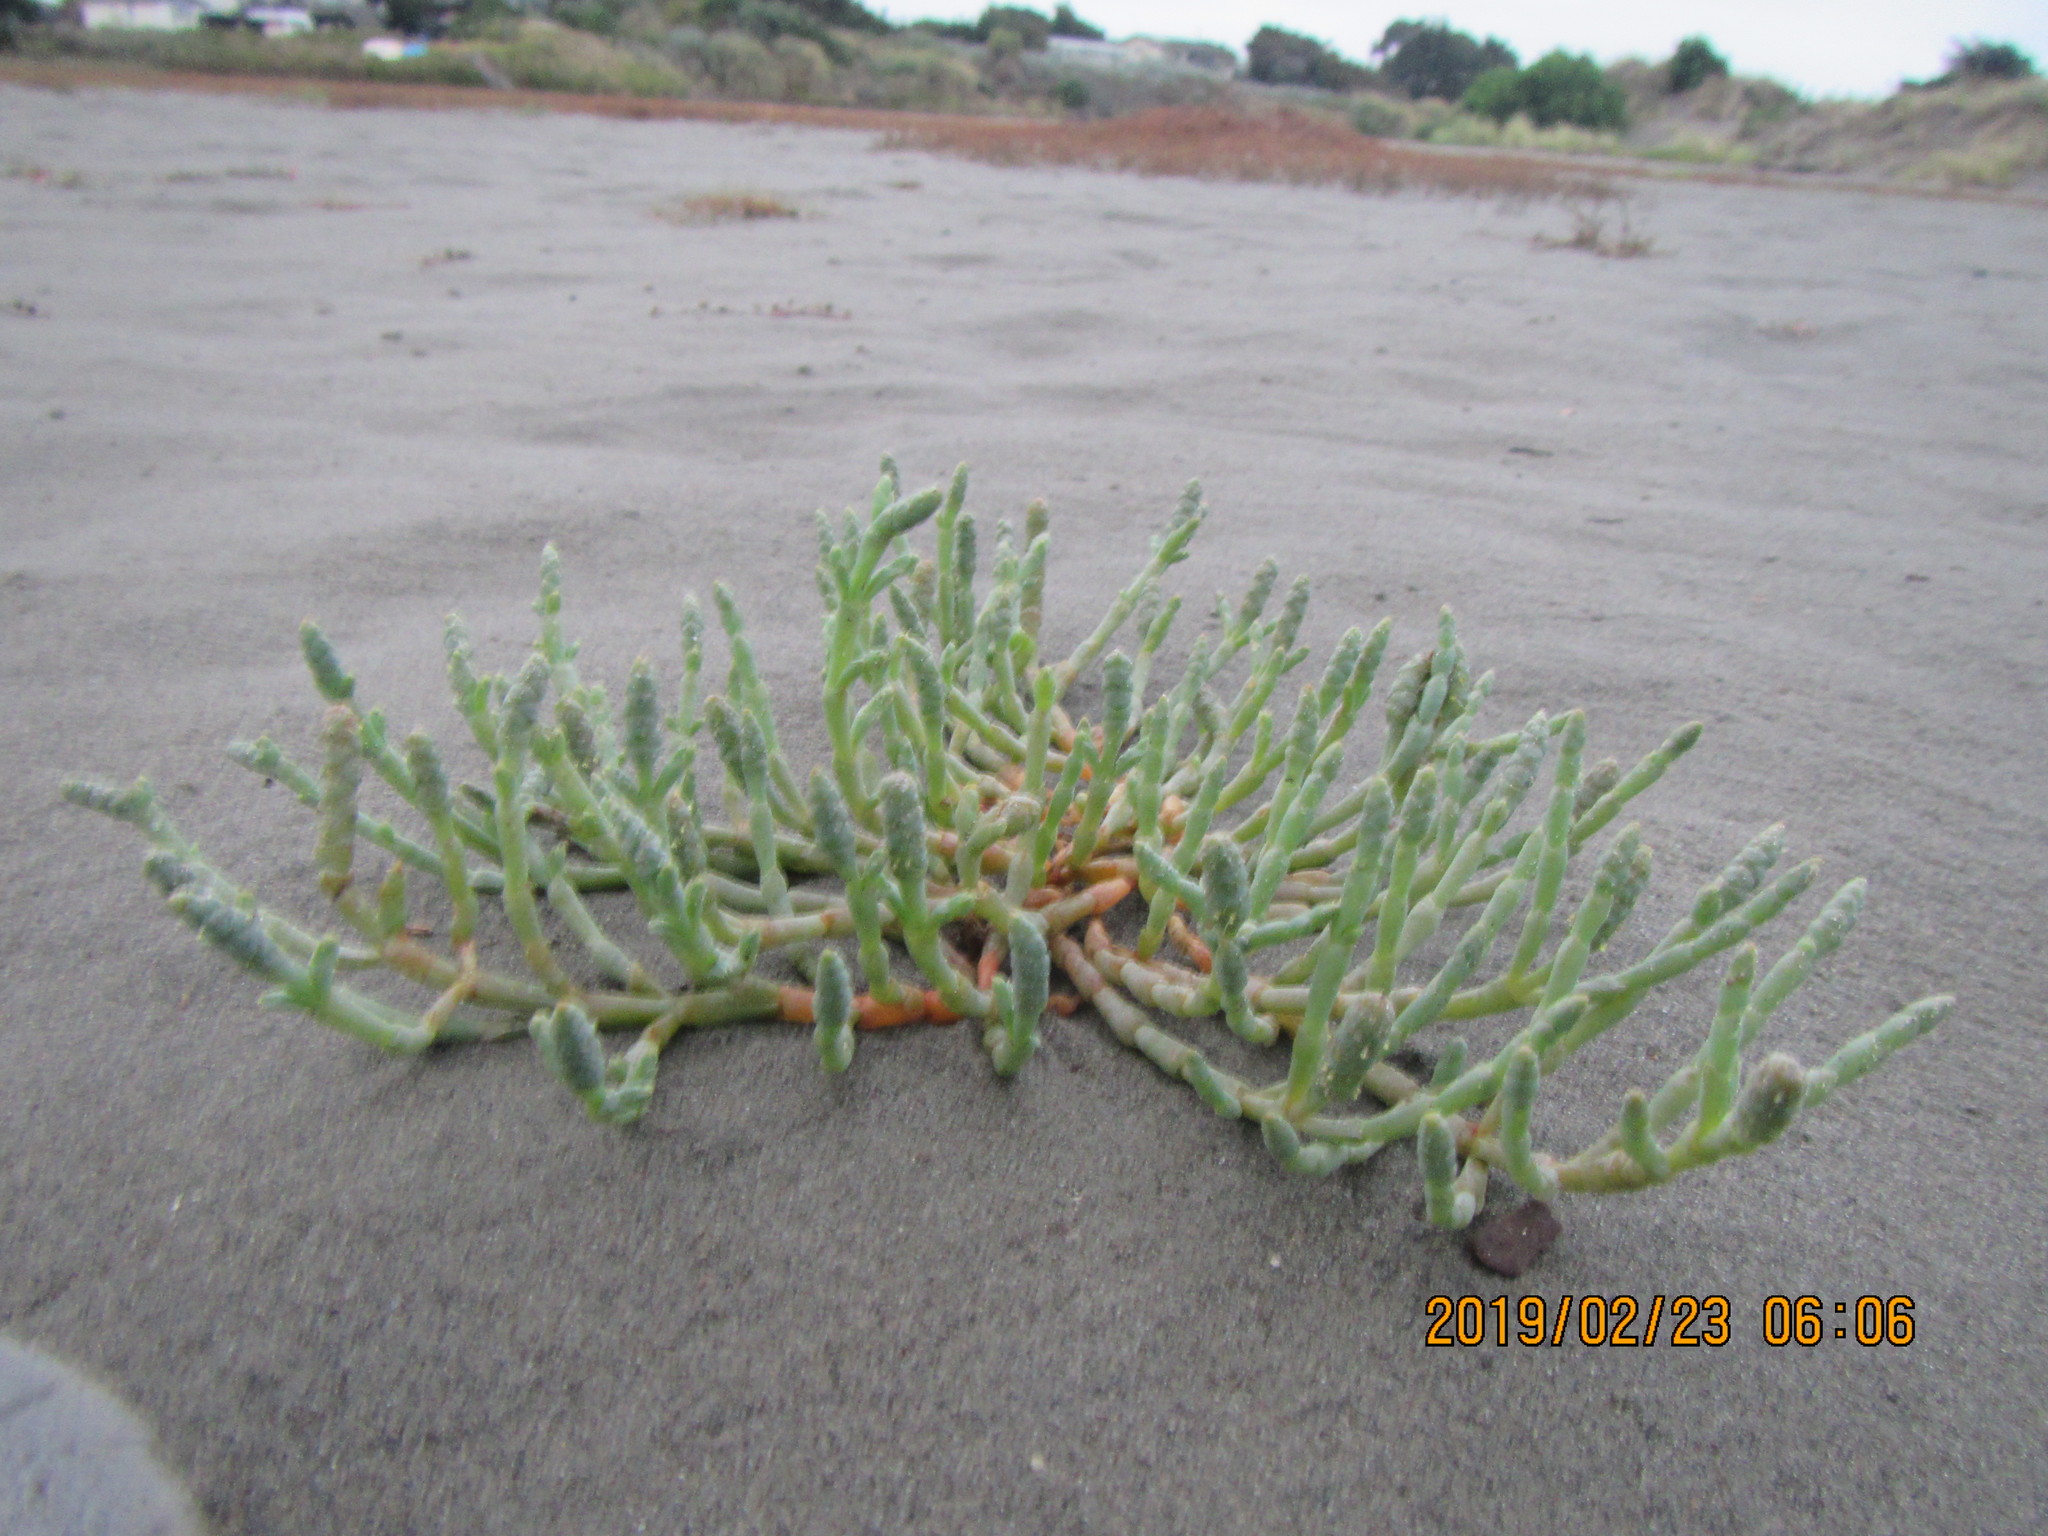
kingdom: Plantae
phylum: Tracheophyta
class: Magnoliopsida
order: Caryophyllales
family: Amaranthaceae
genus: Salicornia
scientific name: Salicornia quinqueflora
